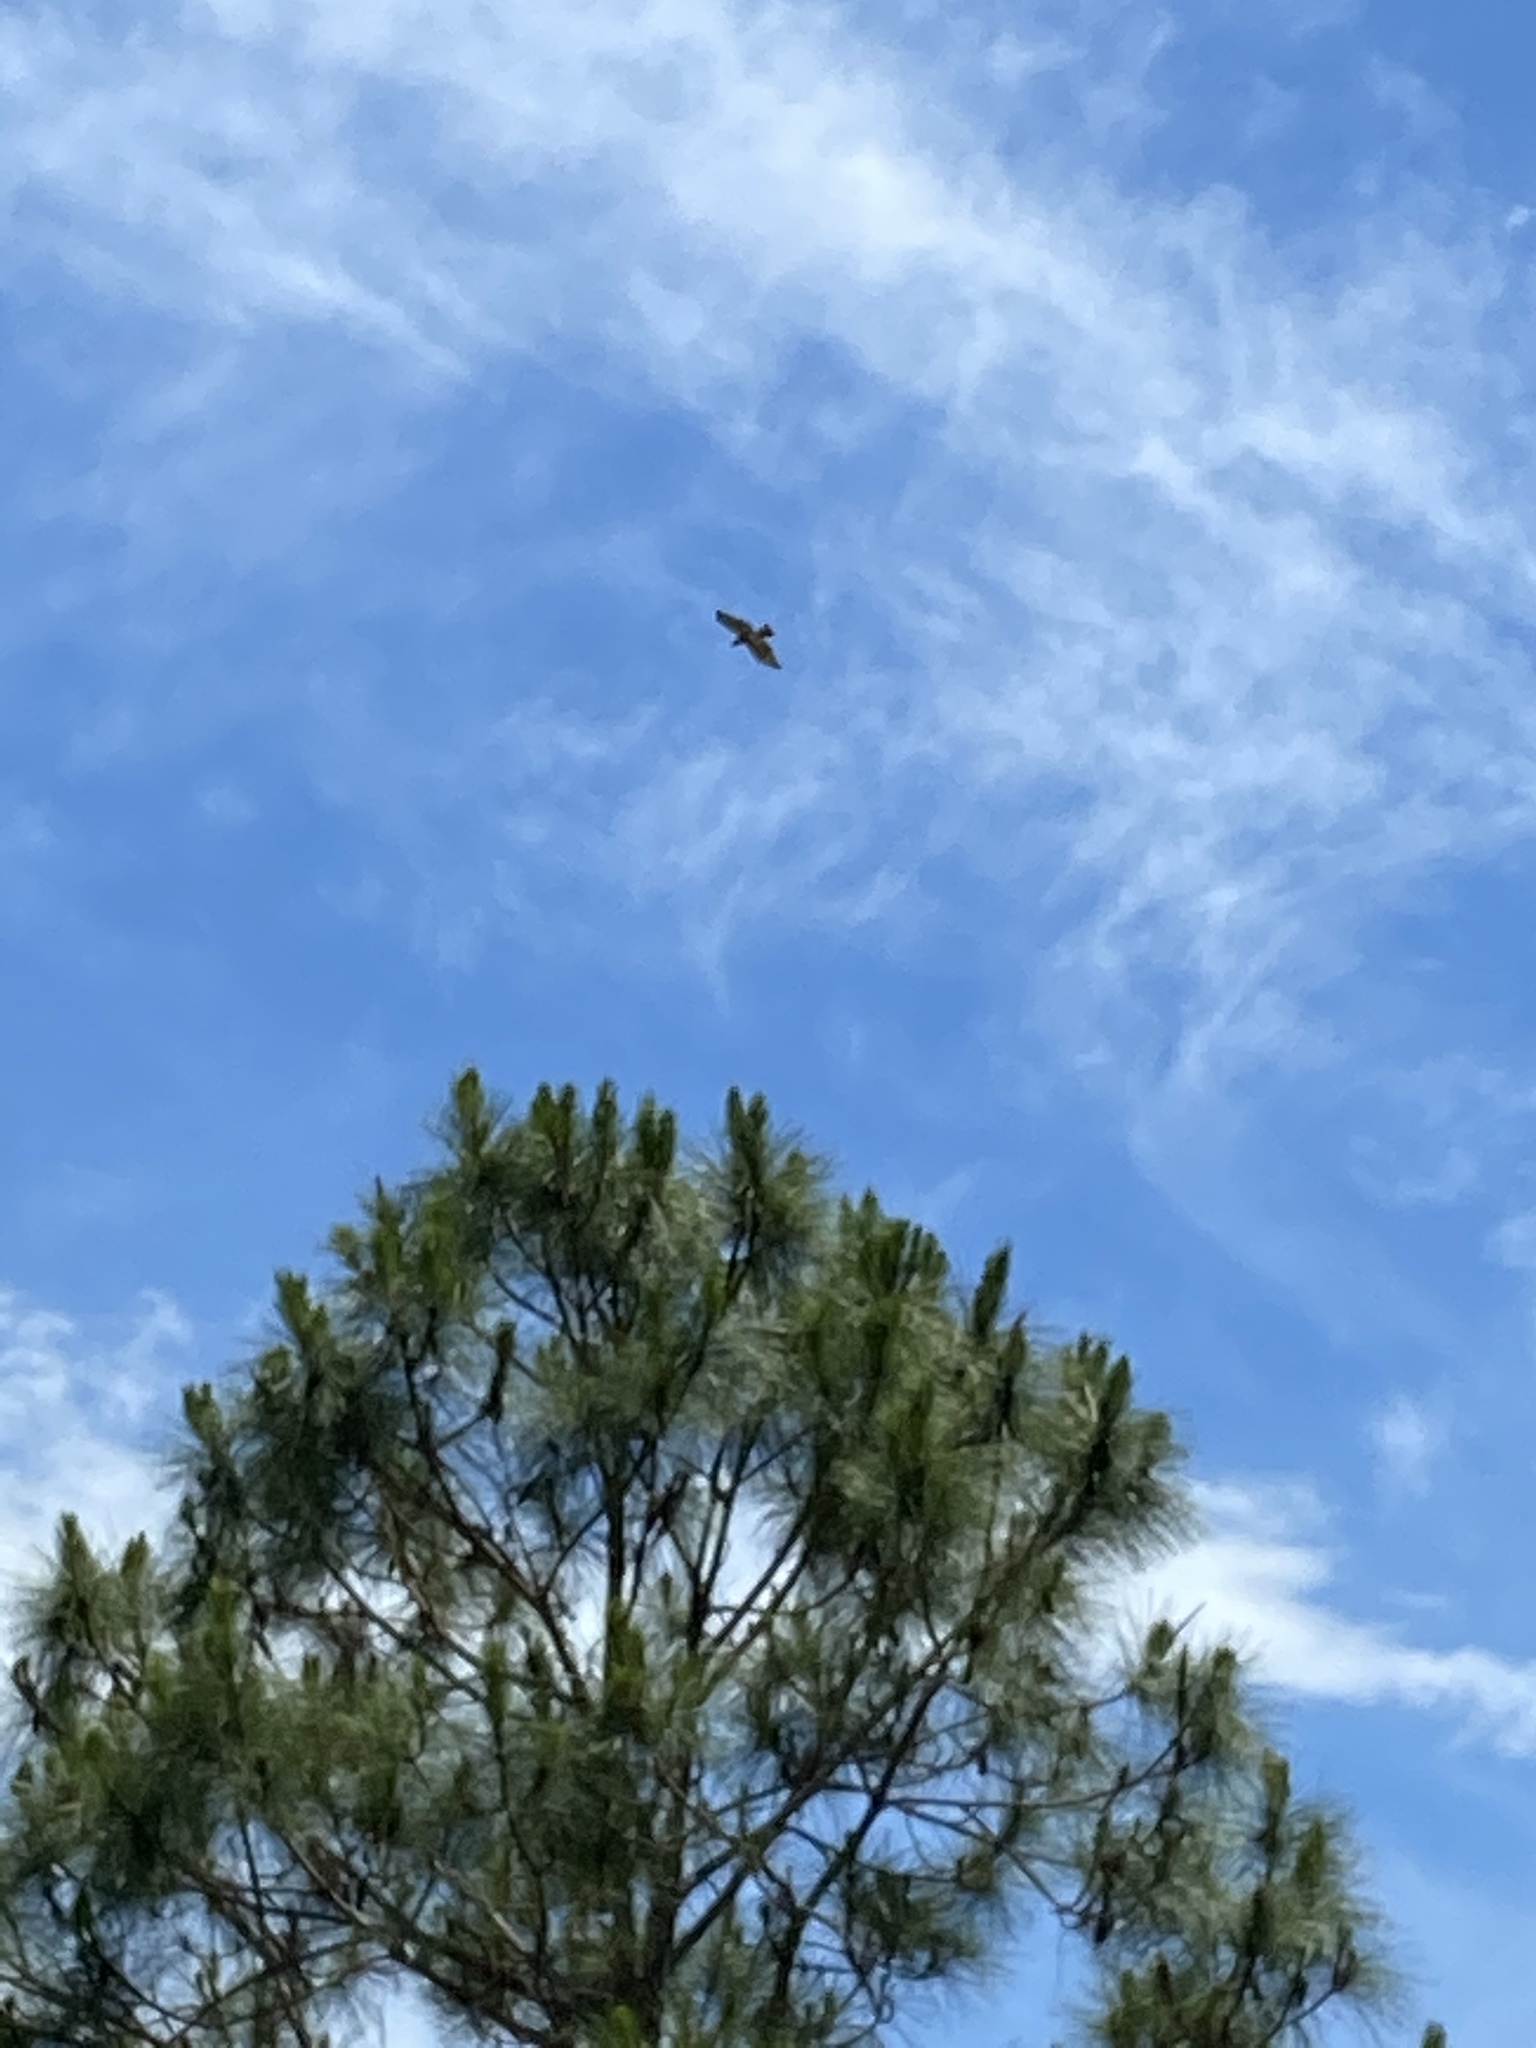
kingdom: Animalia
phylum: Chordata
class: Aves
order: Accipitriformes
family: Accipitridae
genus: Buteo
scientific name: Buteo jamaicensis
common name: Red-tailed hawk
